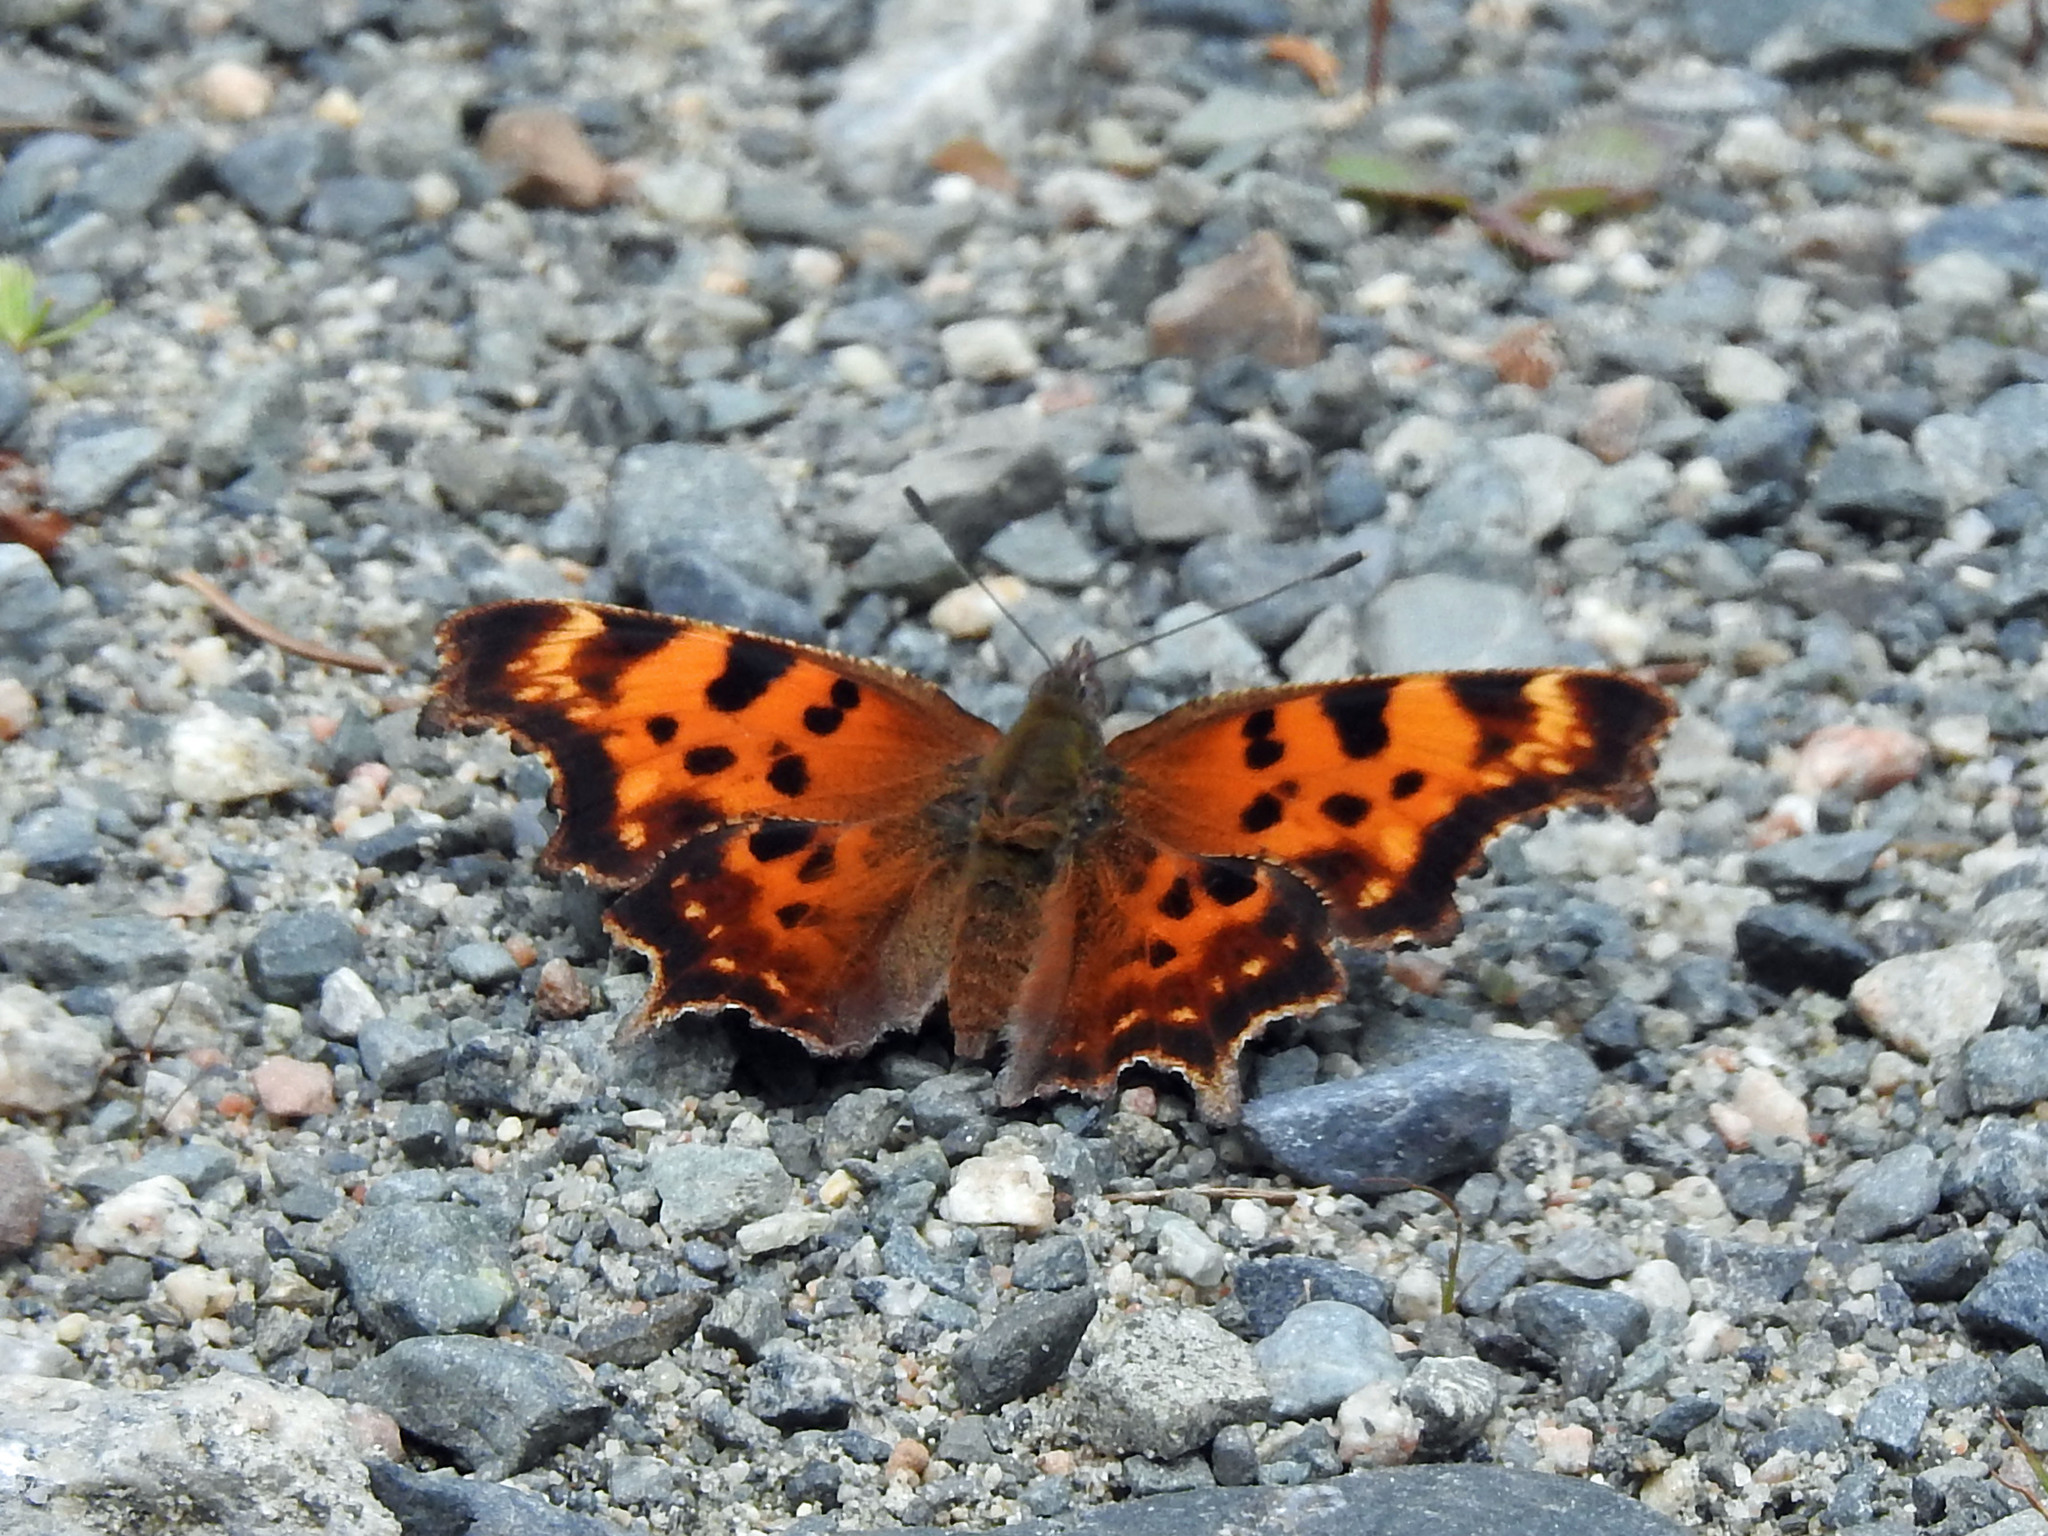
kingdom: Animalia
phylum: Arthropoda
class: Insecta
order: Lepidoptera
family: Nymphalidae
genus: Polygonia
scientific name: Polygonia faunus
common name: Green comma
